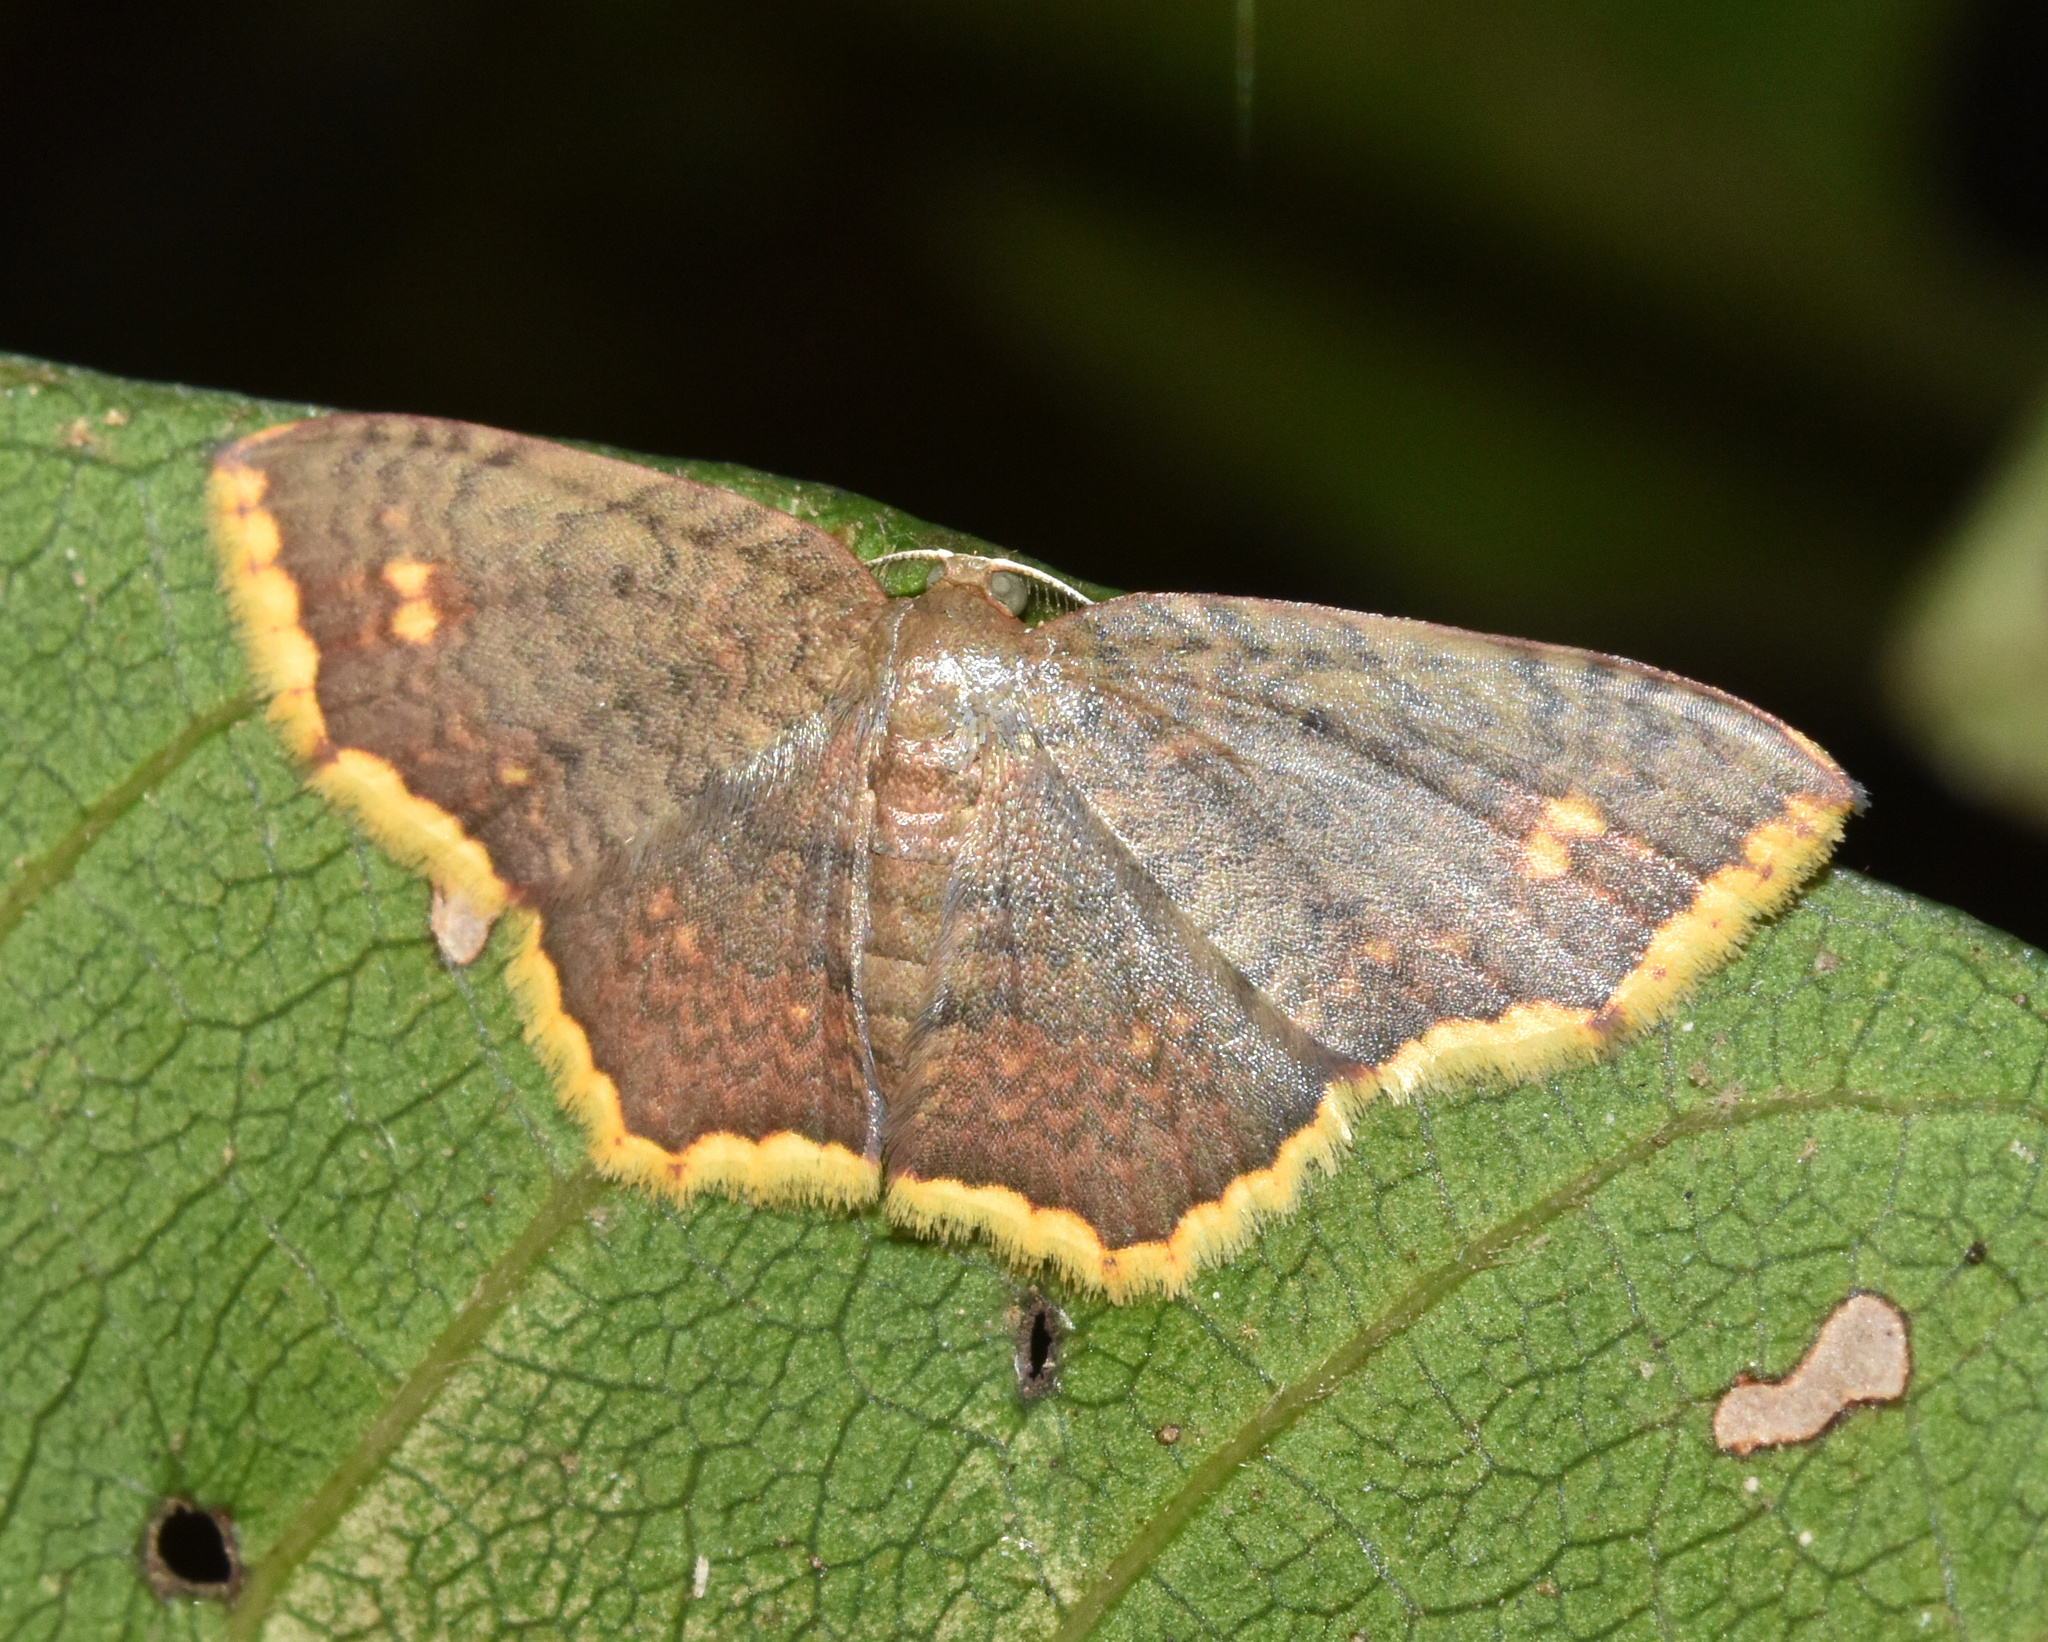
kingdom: Animalia
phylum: Arthropoda
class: Insecta
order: Lepidoptera
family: Geometridae
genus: Eois
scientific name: Eois grataria
